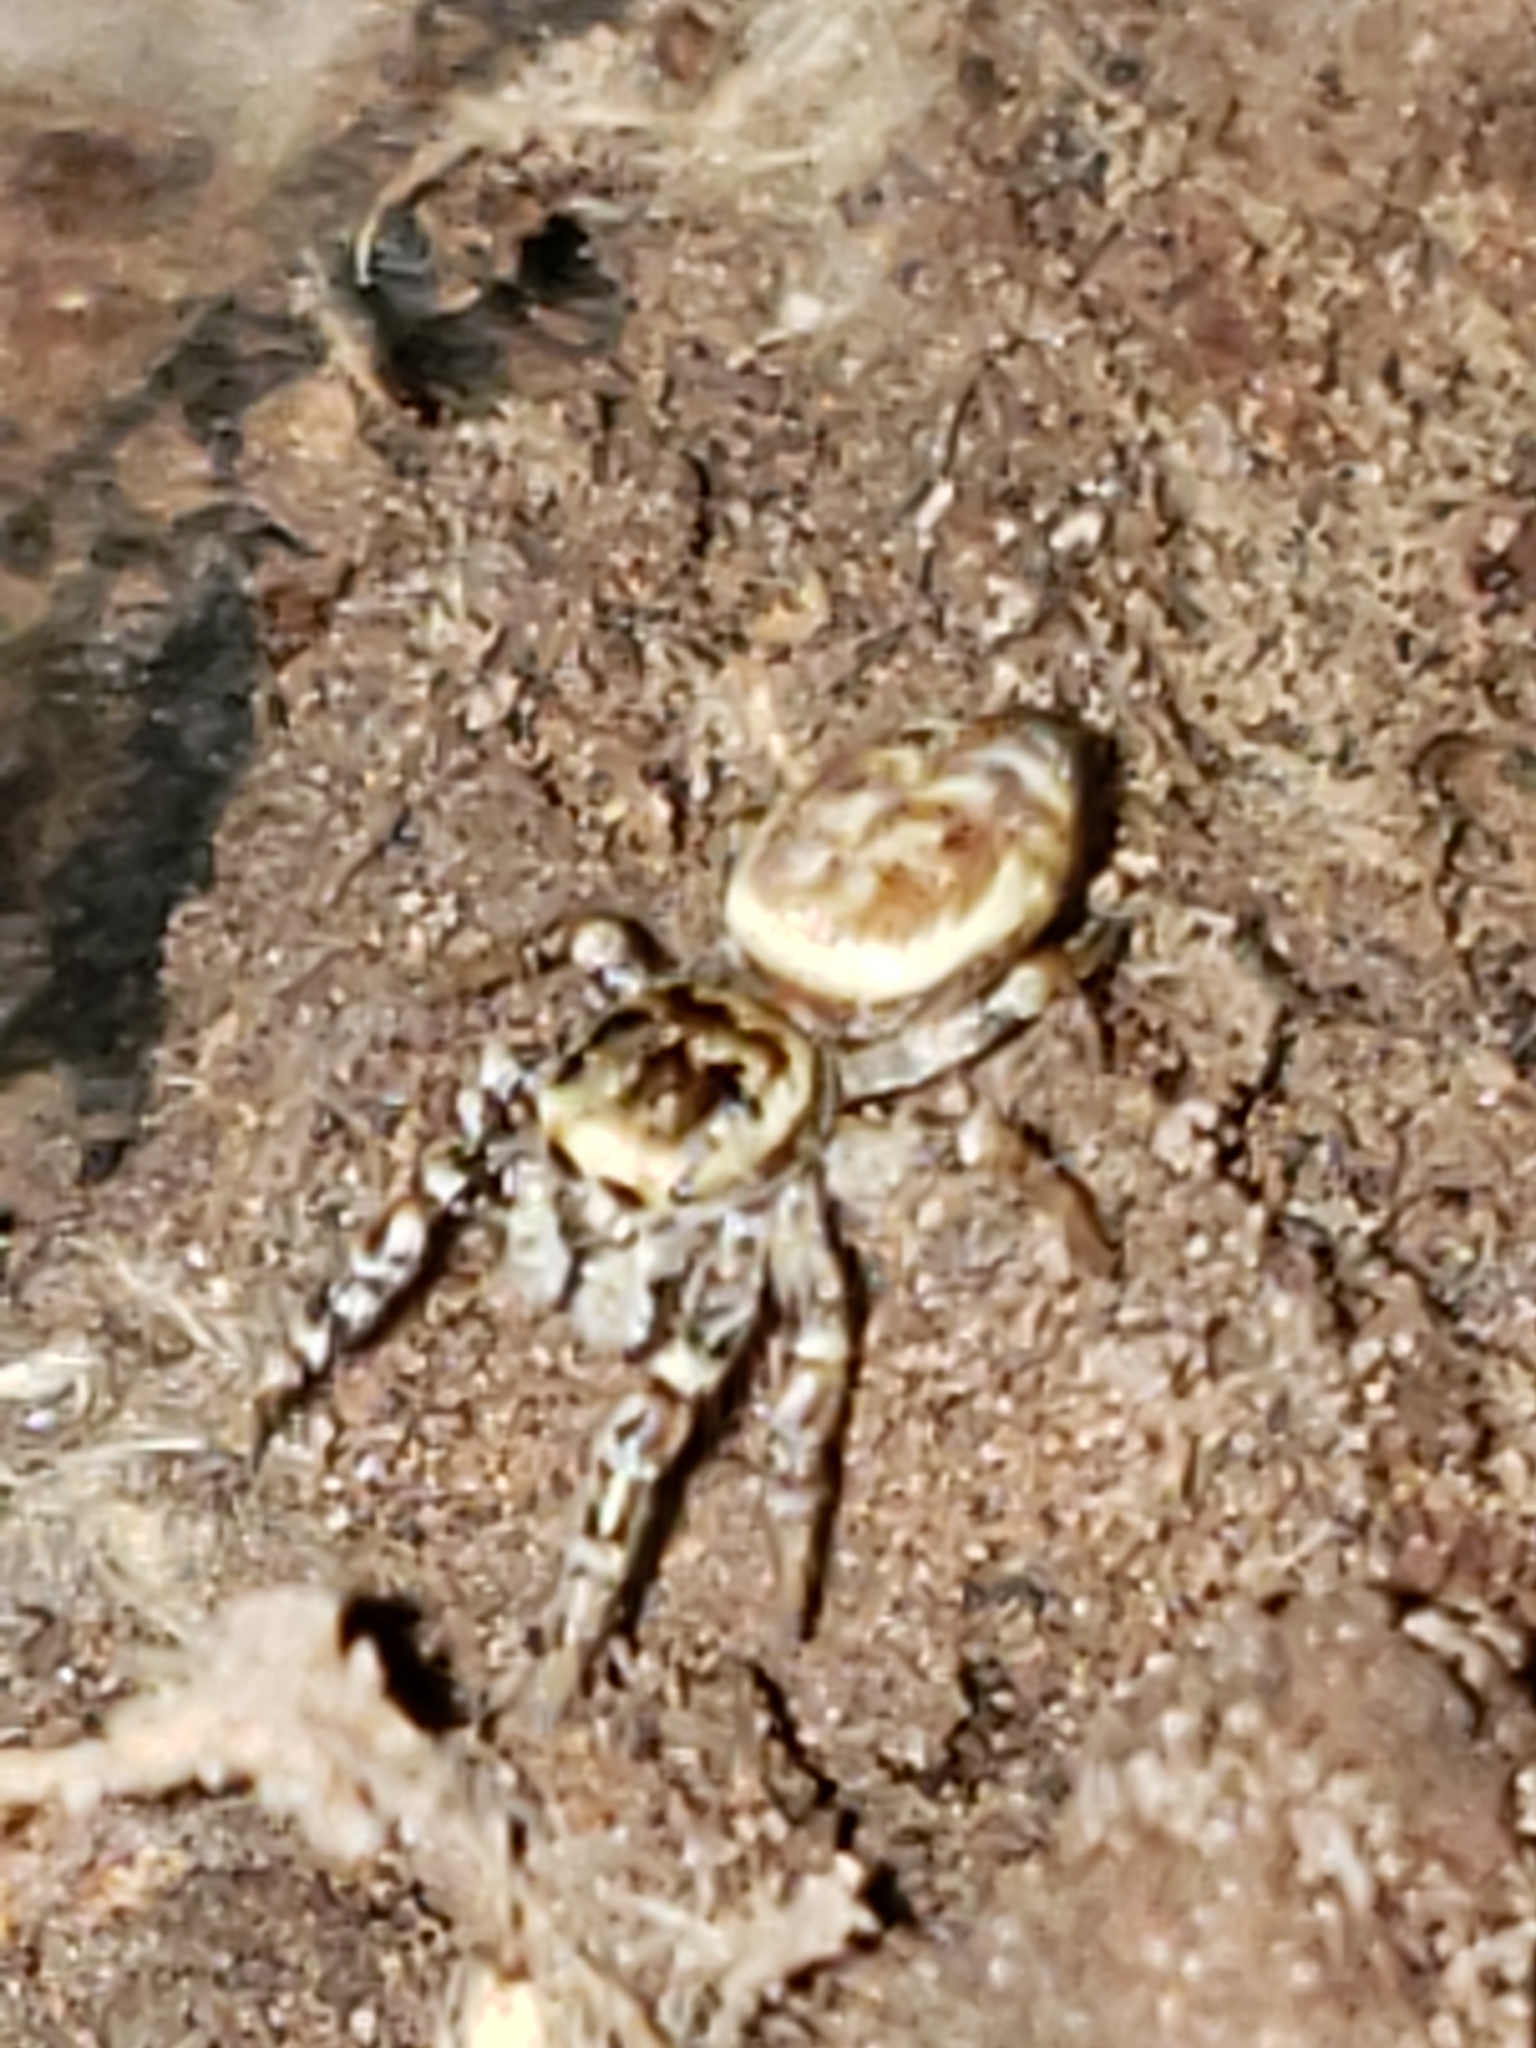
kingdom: Animalia
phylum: Arthropoda
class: Arachnida
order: Araneae
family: Salticidae
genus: Pelegrina
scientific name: Pelegrina proterva
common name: Common white-cheeked jumping spider
